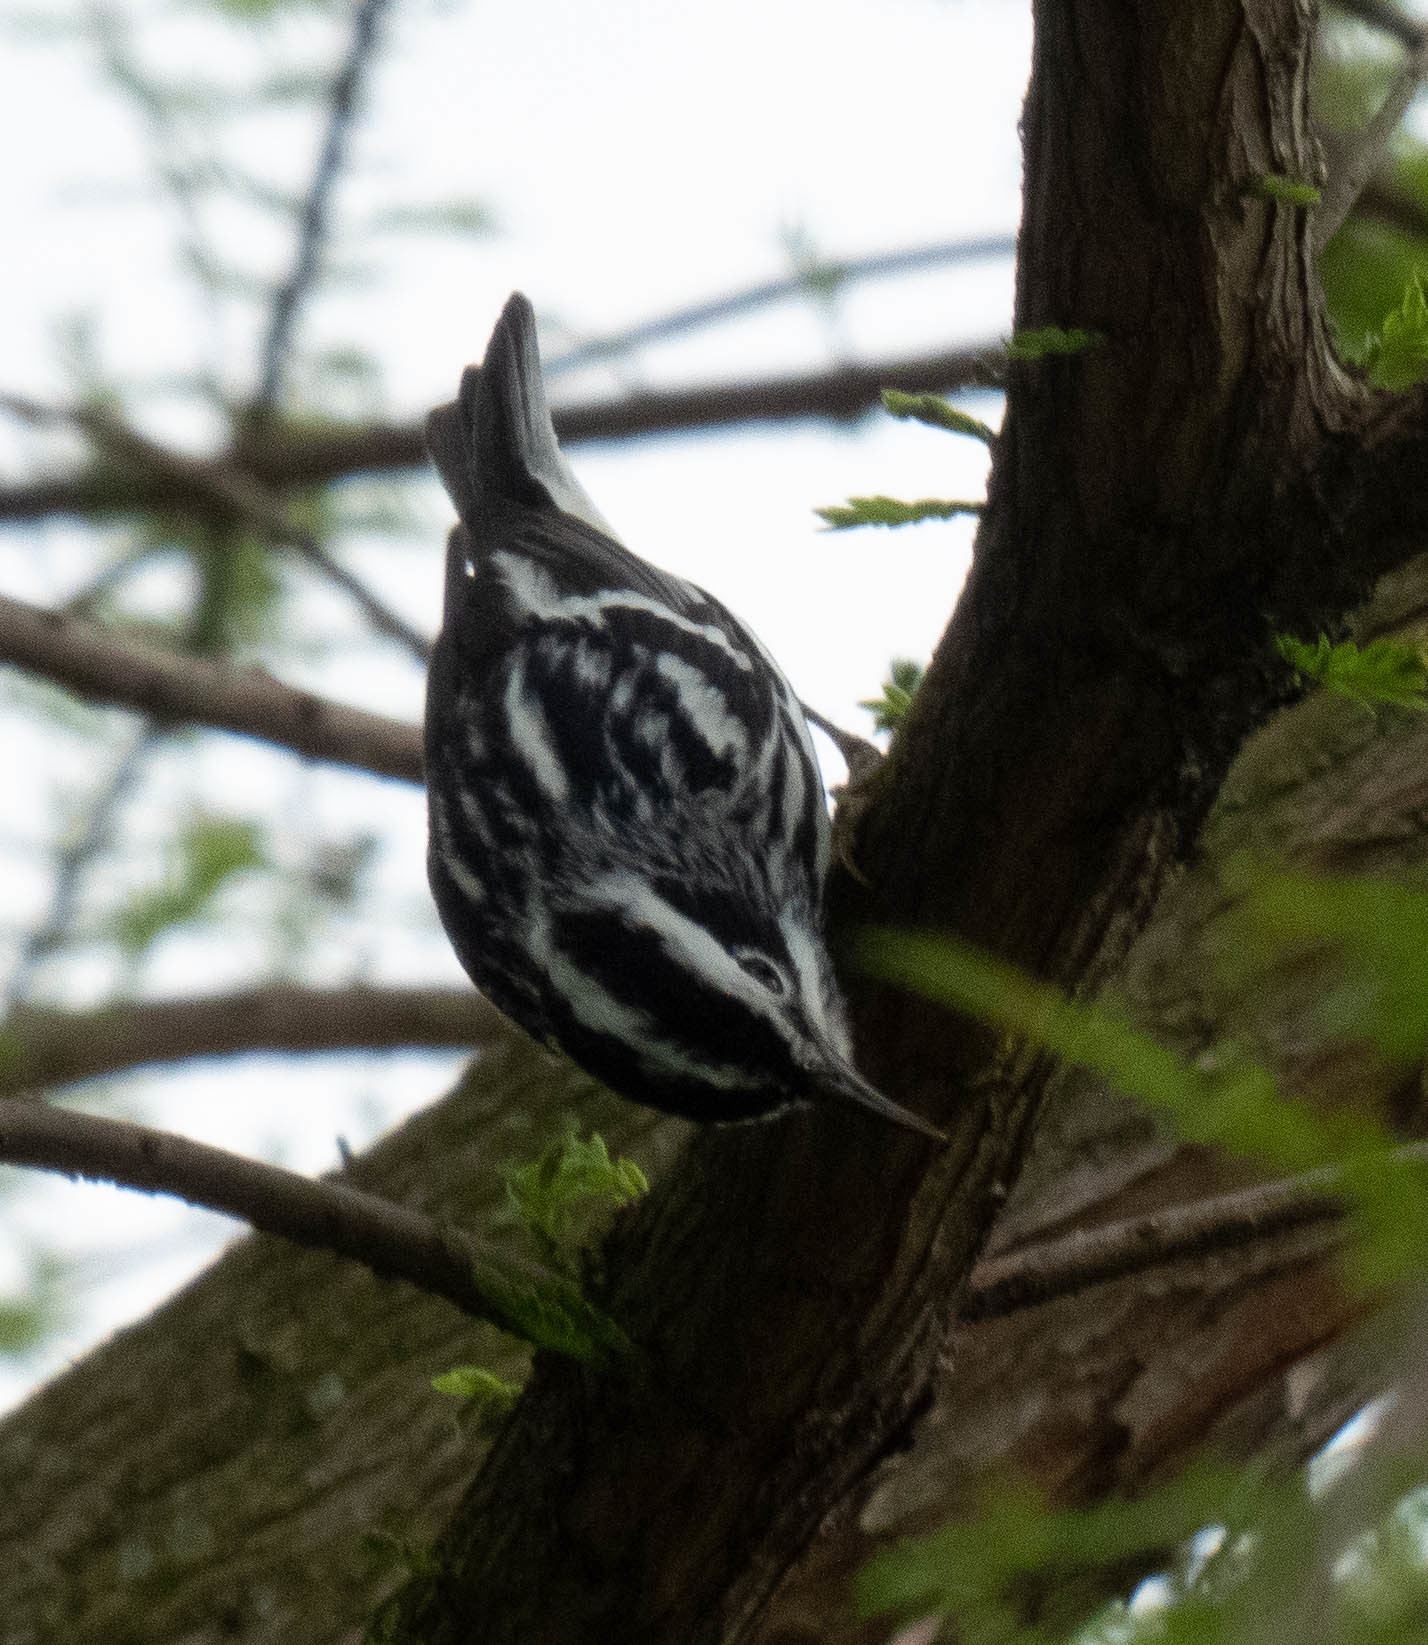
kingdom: Animalia
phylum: Chordata
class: Aves
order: Passeriformes
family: Parulidae
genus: Mniotilta
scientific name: Mniotilta varia
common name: Black-and-white warbler
